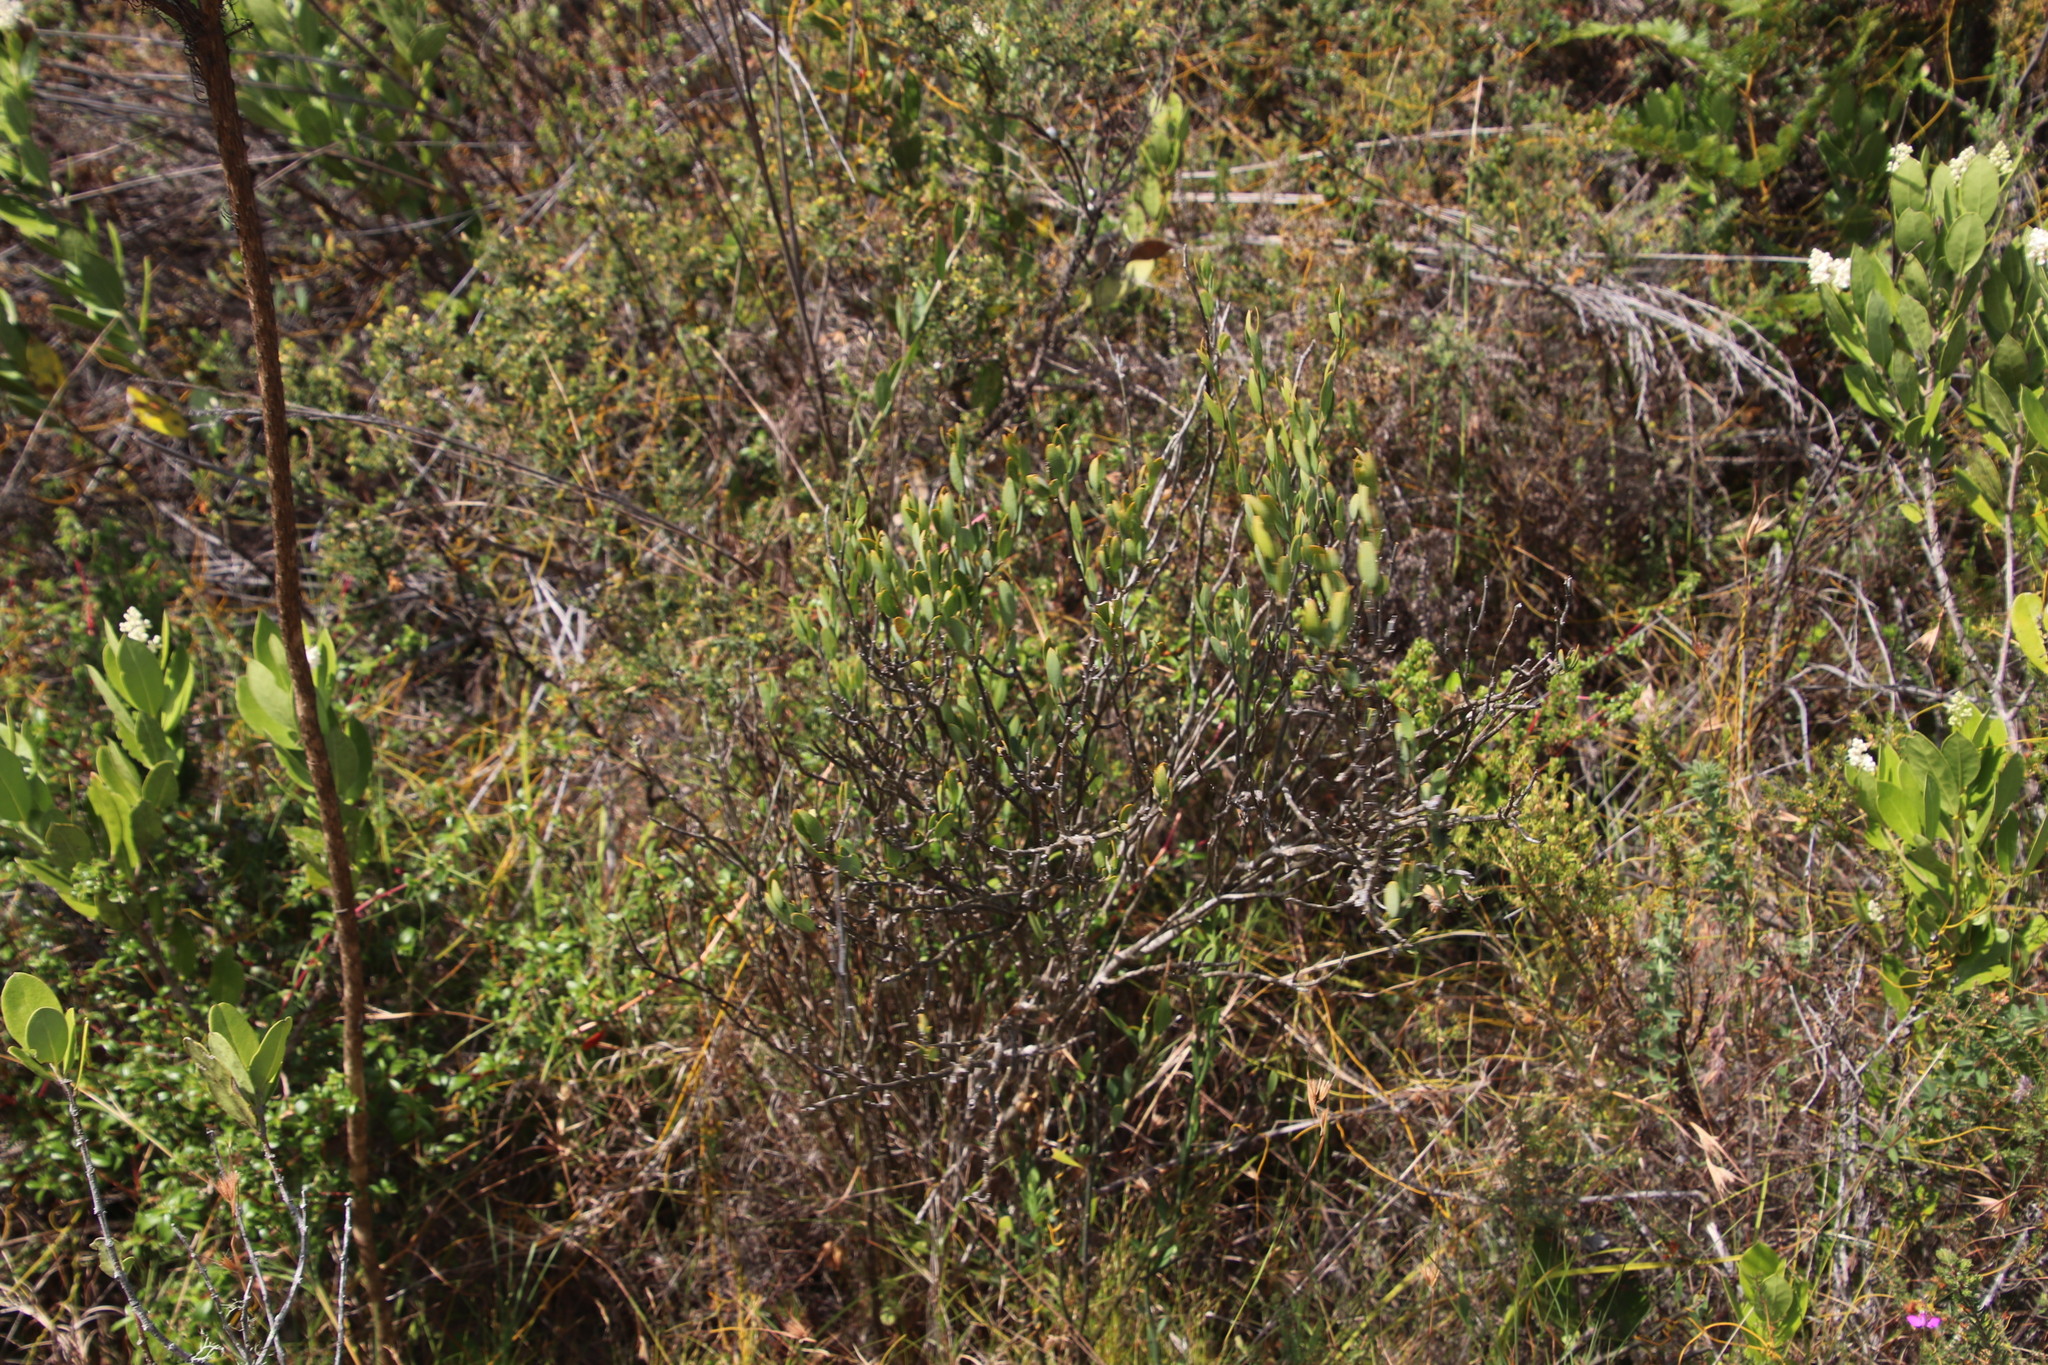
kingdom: Plantae
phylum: Tracheophyta
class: Magnoliopsida
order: Solanales
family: Montiniaceae
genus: Montinia
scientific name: Montinia caryophyllacea
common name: Wild clove-bush
